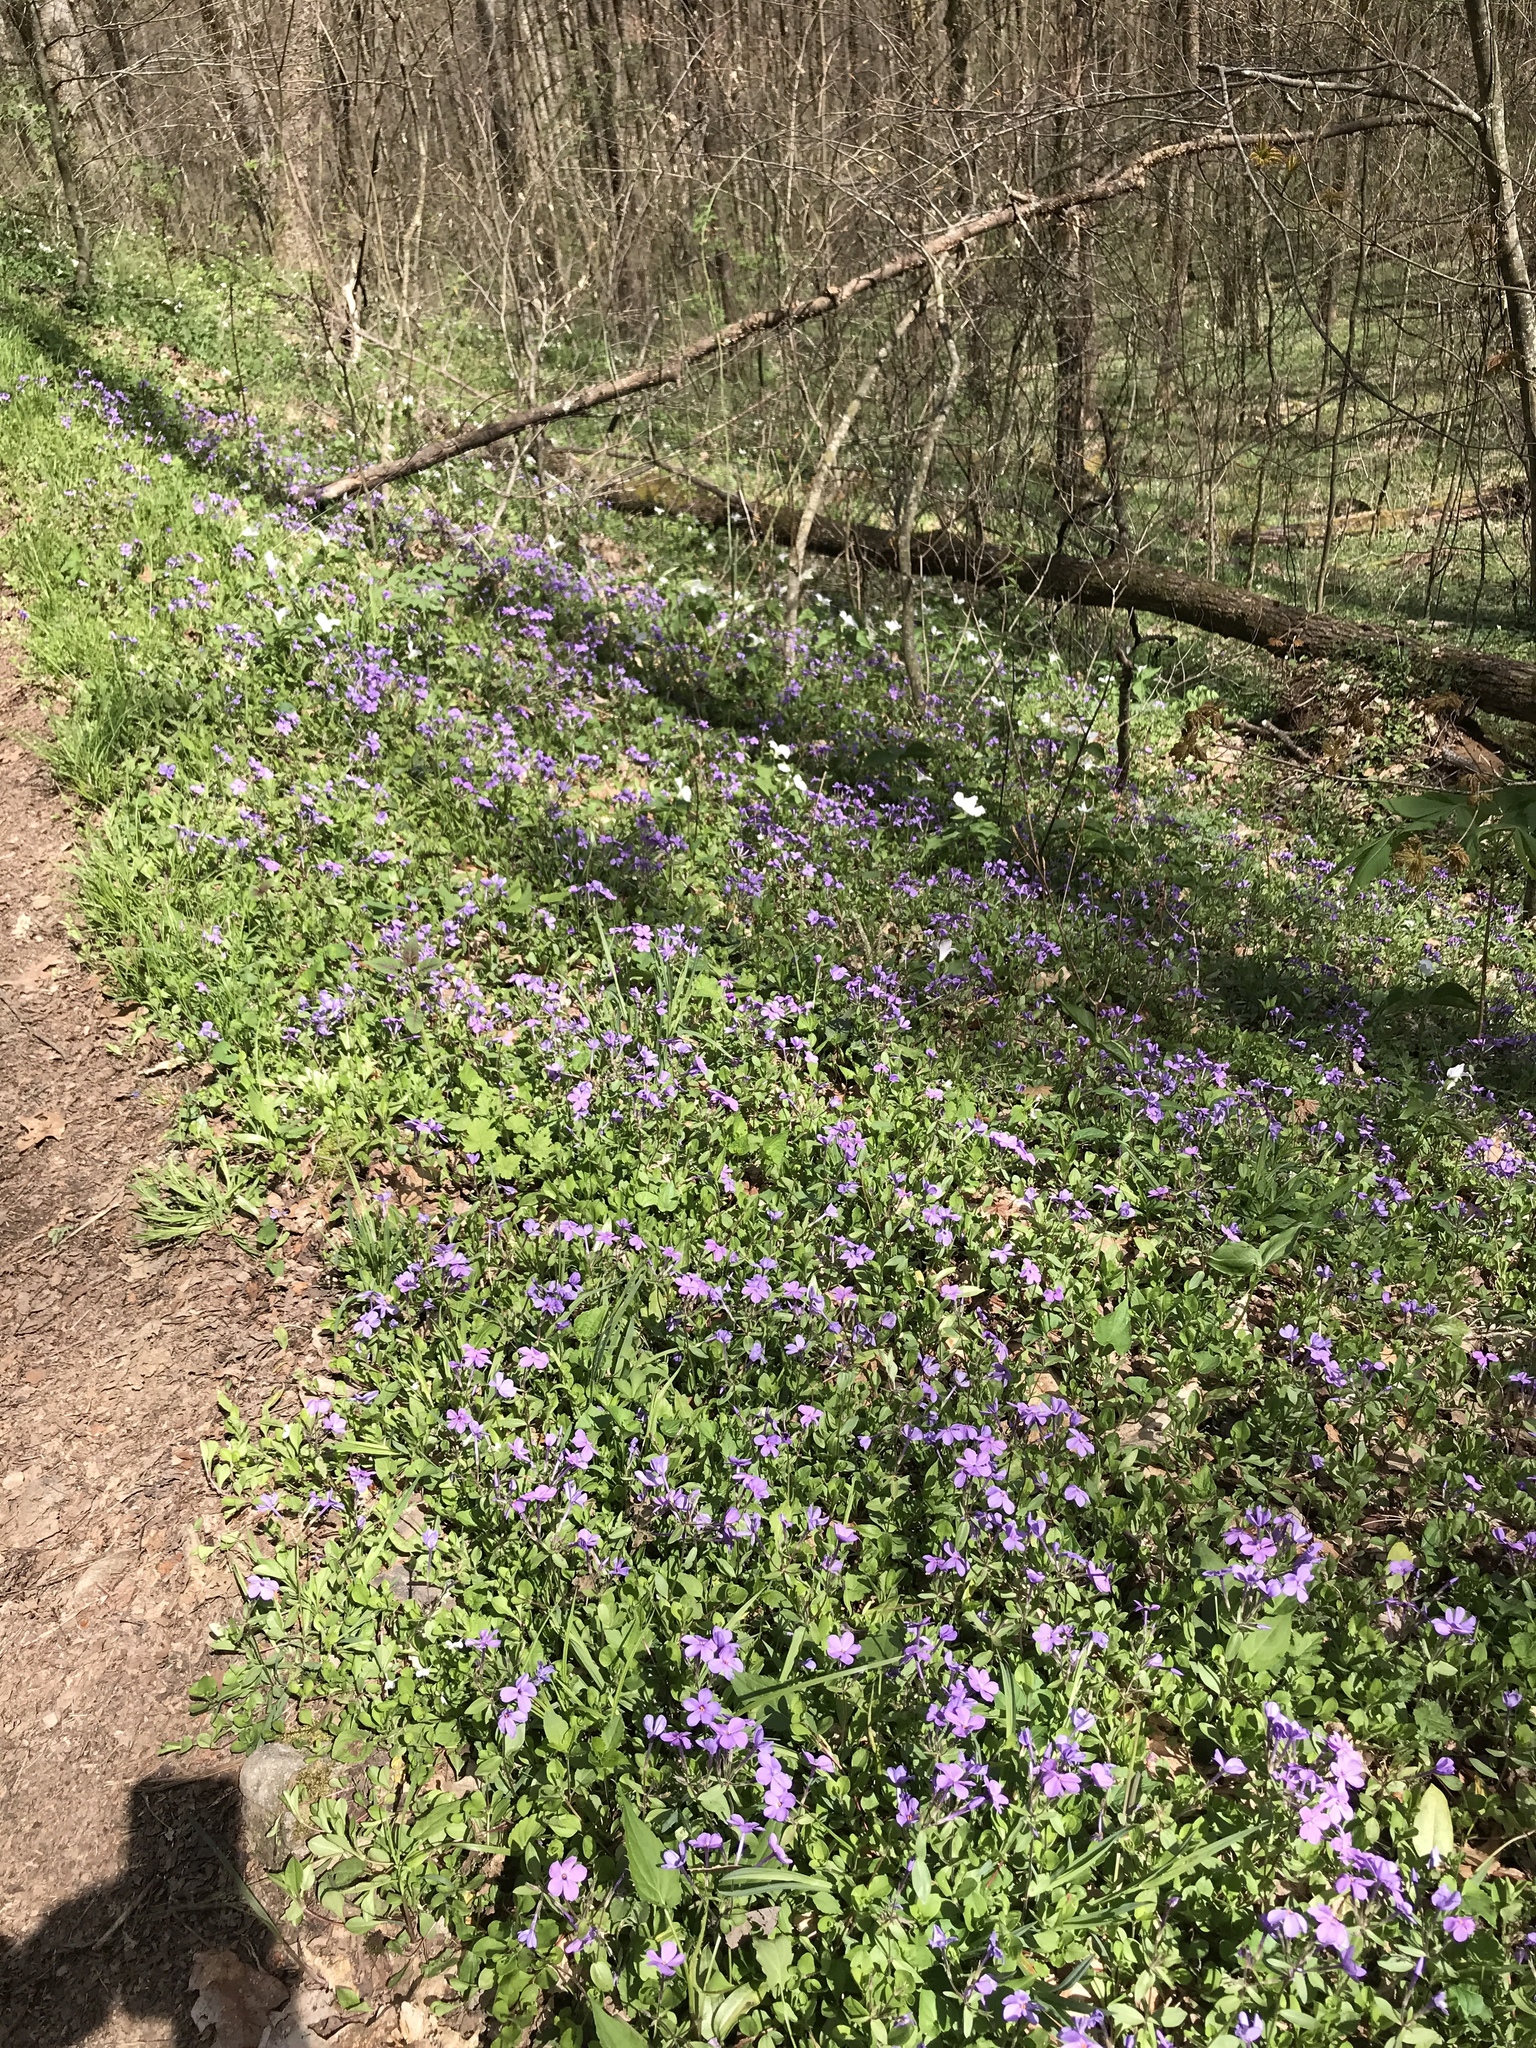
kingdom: Plantae
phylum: Tracheophyta
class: Magnoliopsida
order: Ericales
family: Polemoniaceae
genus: Phlox
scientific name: Phlox stolonifera
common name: Creeping phlox
